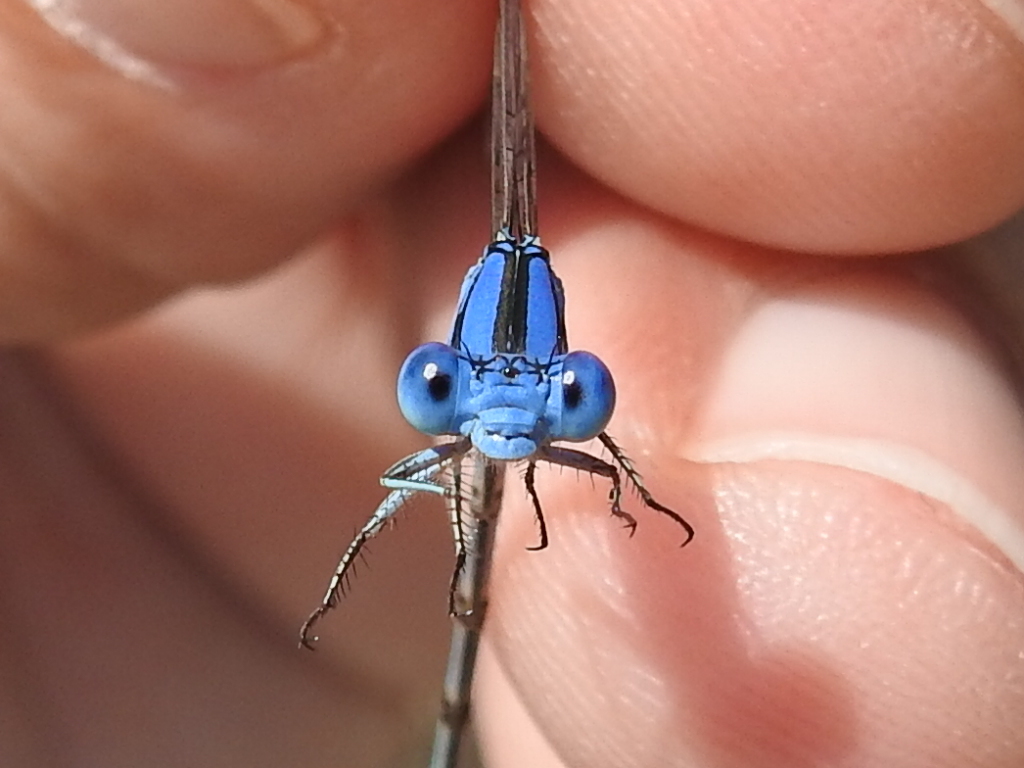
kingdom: Animalia
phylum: Arthropoda
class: Insecta
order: Odonata
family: Coenagrionidae
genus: Argia
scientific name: Argia nahuana
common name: Aztec dancer
